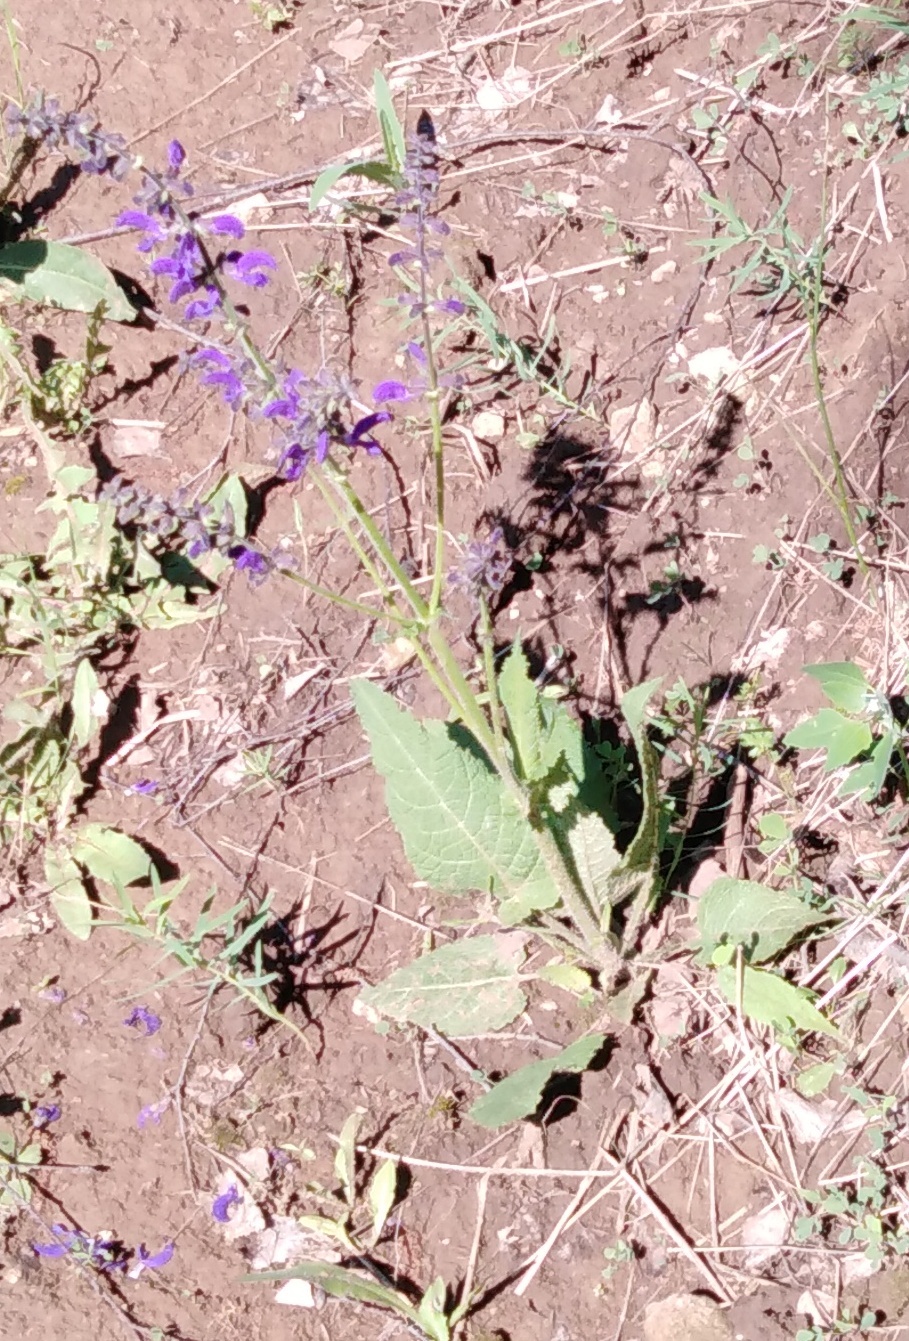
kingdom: Plantae
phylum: Tracheophyta
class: Magnoliopsida
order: Lamiales
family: Lamiaceae
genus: Salvia
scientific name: Salvia pratensis
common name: Meadow sage
